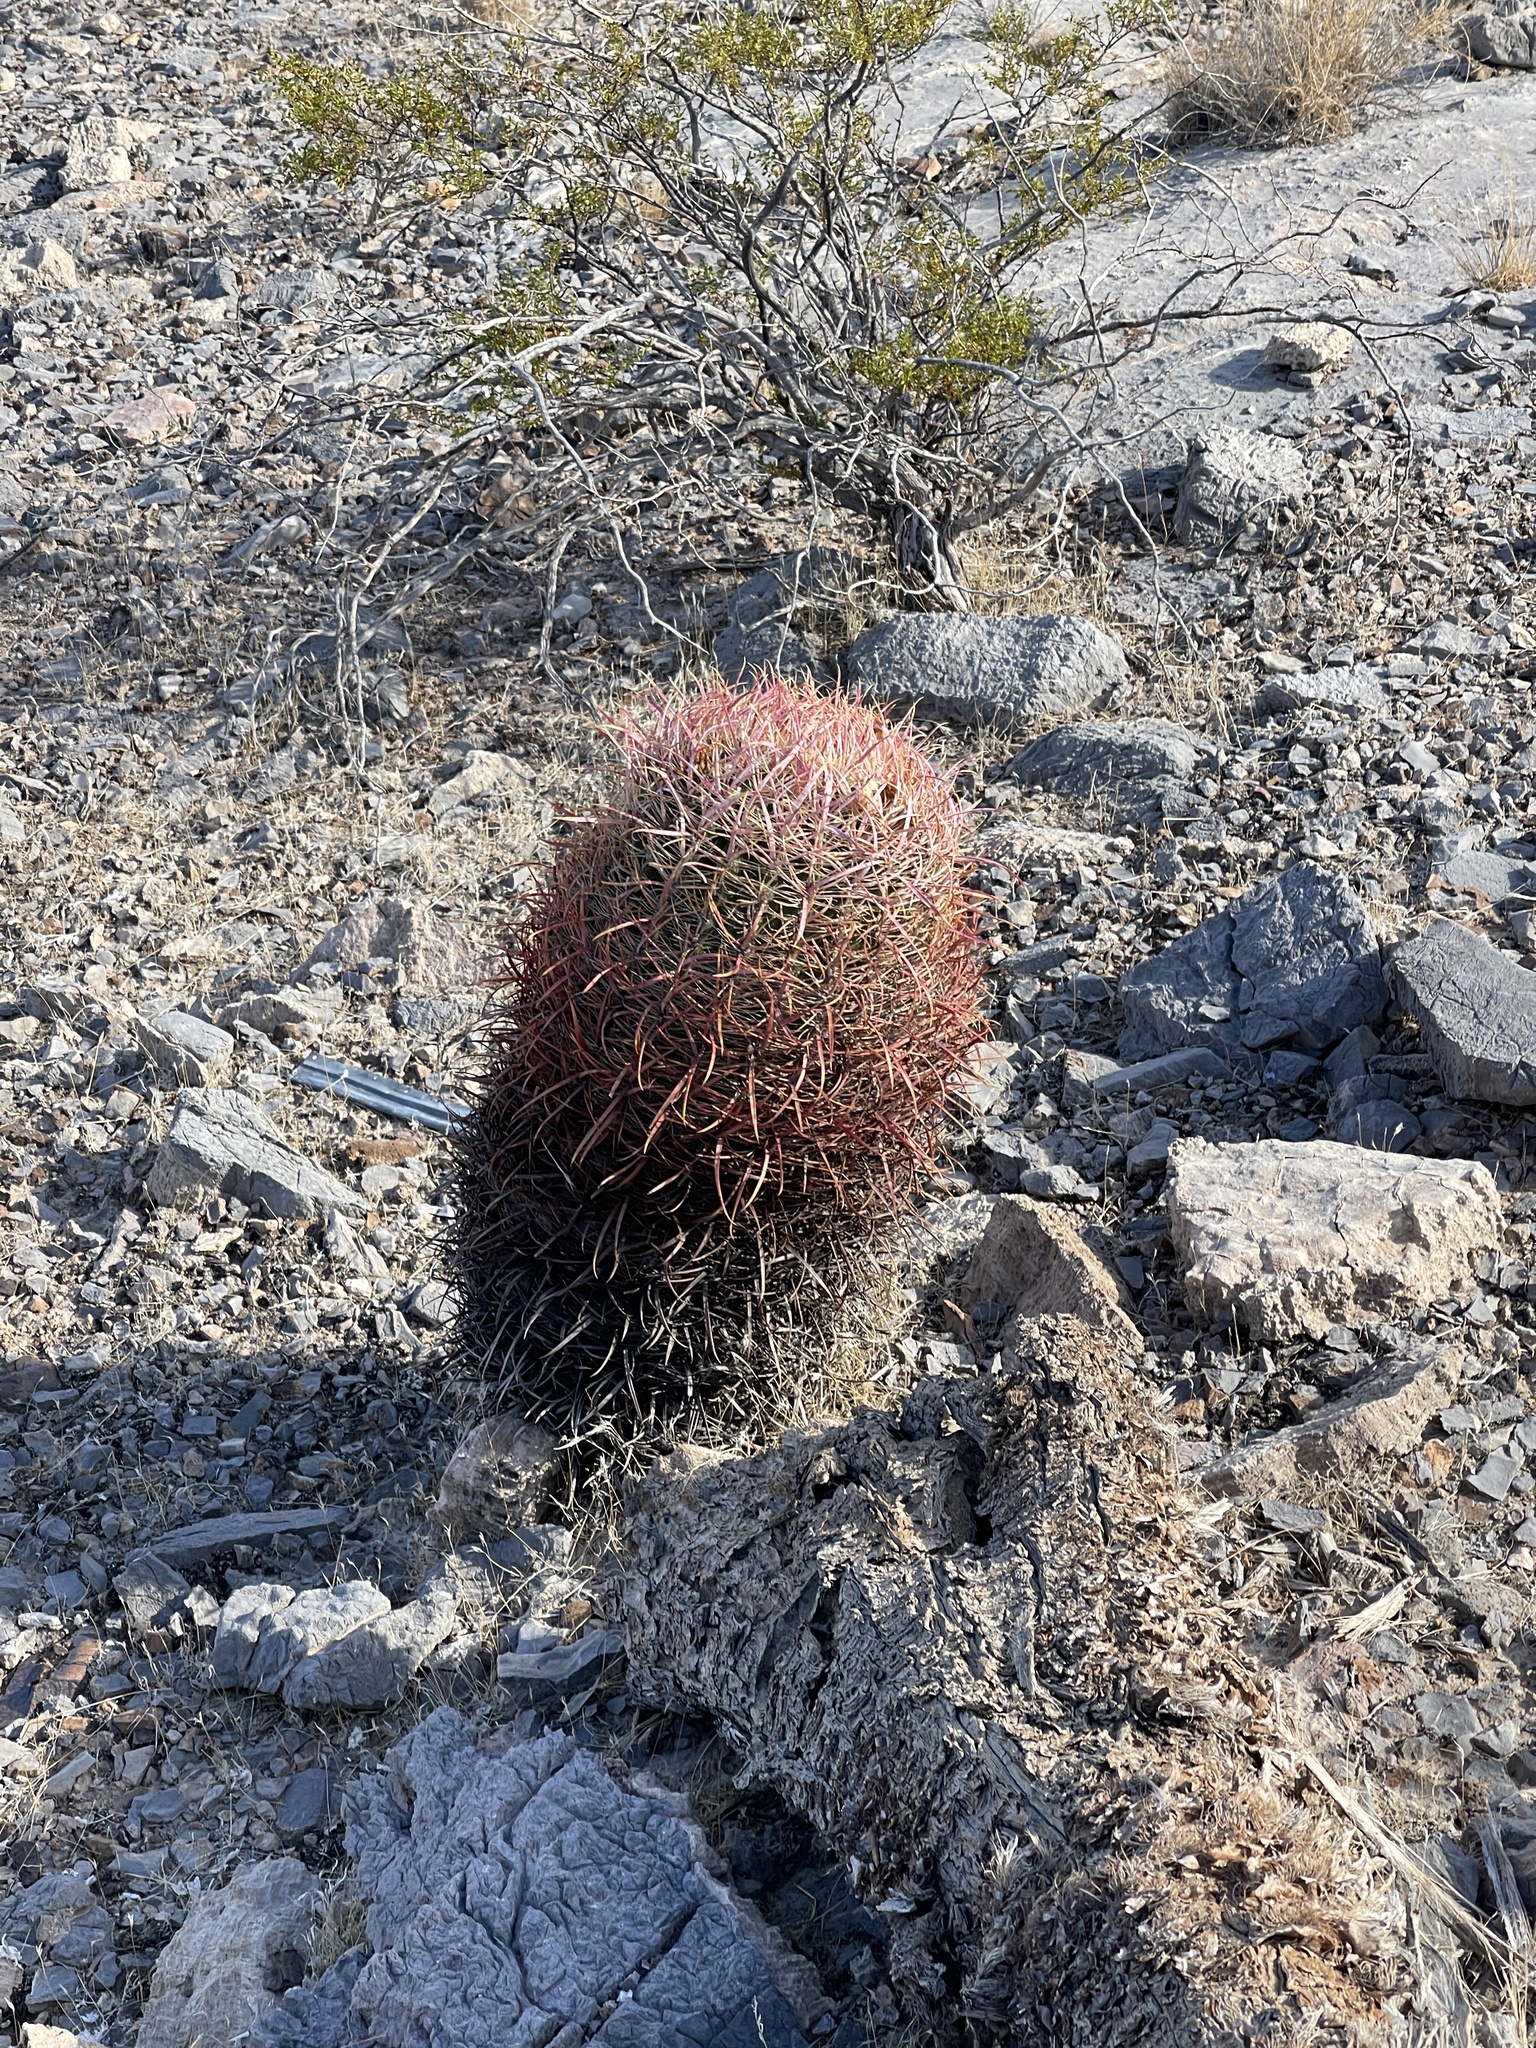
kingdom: Plantae
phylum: Tracheophyta
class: Magnoliopsida
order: Caryophyllales
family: Cactaceae
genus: Ferocactus
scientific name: Ferocactus cylindraceus
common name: California barrel cactus
